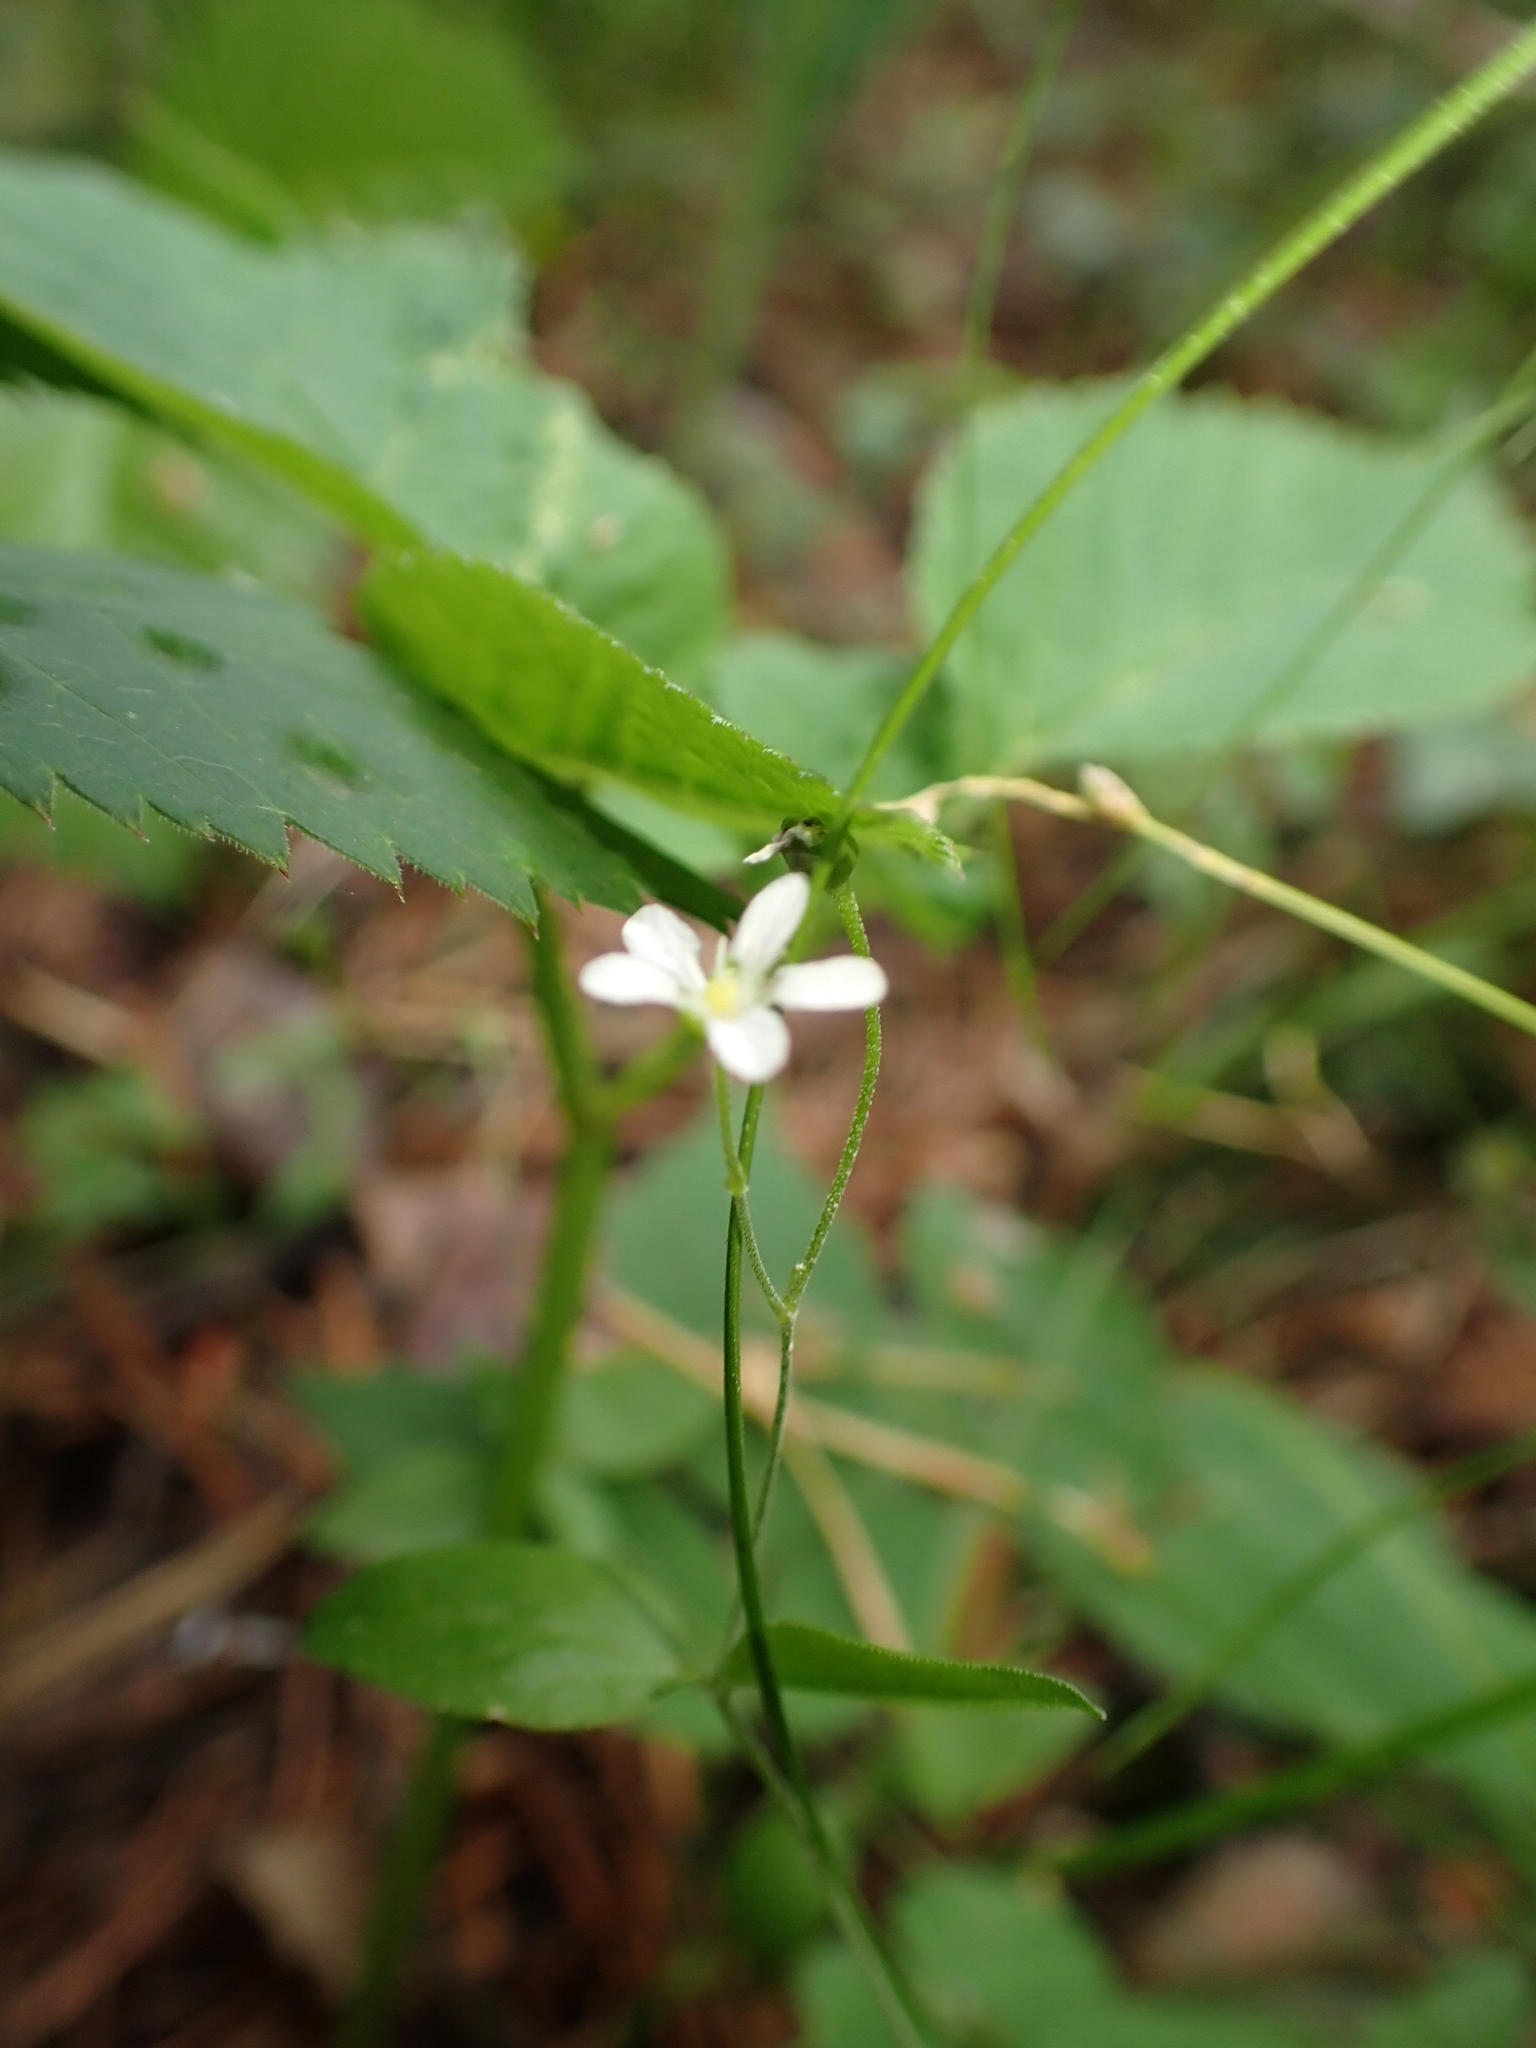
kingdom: Plantae
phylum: Tracheophyta
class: Magnoliopsida
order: Caryophyllales
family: Caryophyllaceae
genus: Moehringia
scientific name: Moehringia lateriflora
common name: Blunt-leaved sandwort
